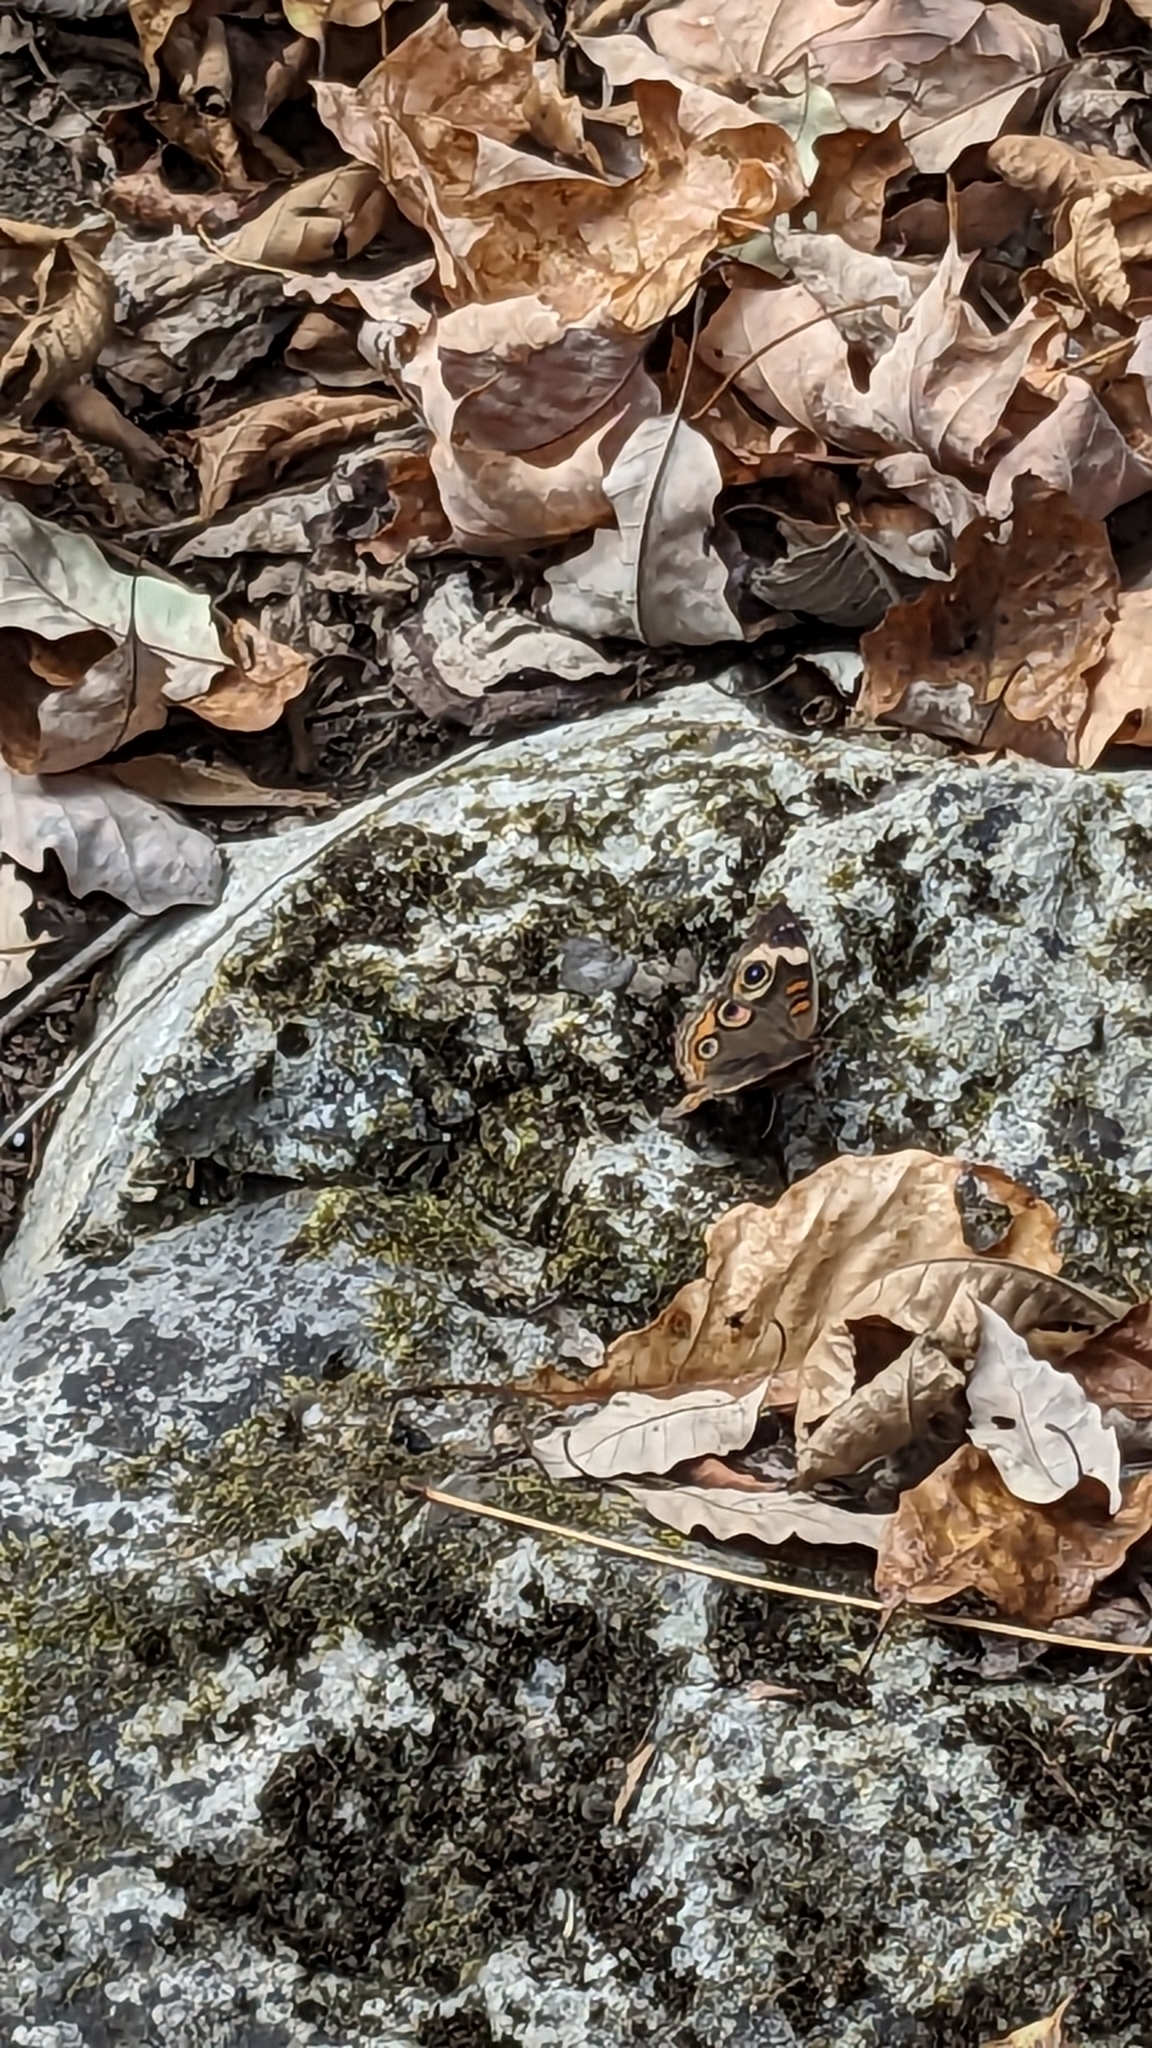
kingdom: Animalia
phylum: Arthropoda
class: Insecta
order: Lepidoptera
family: Nymphalidae
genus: Junonia
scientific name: Junonia coenia
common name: Common buckeye
